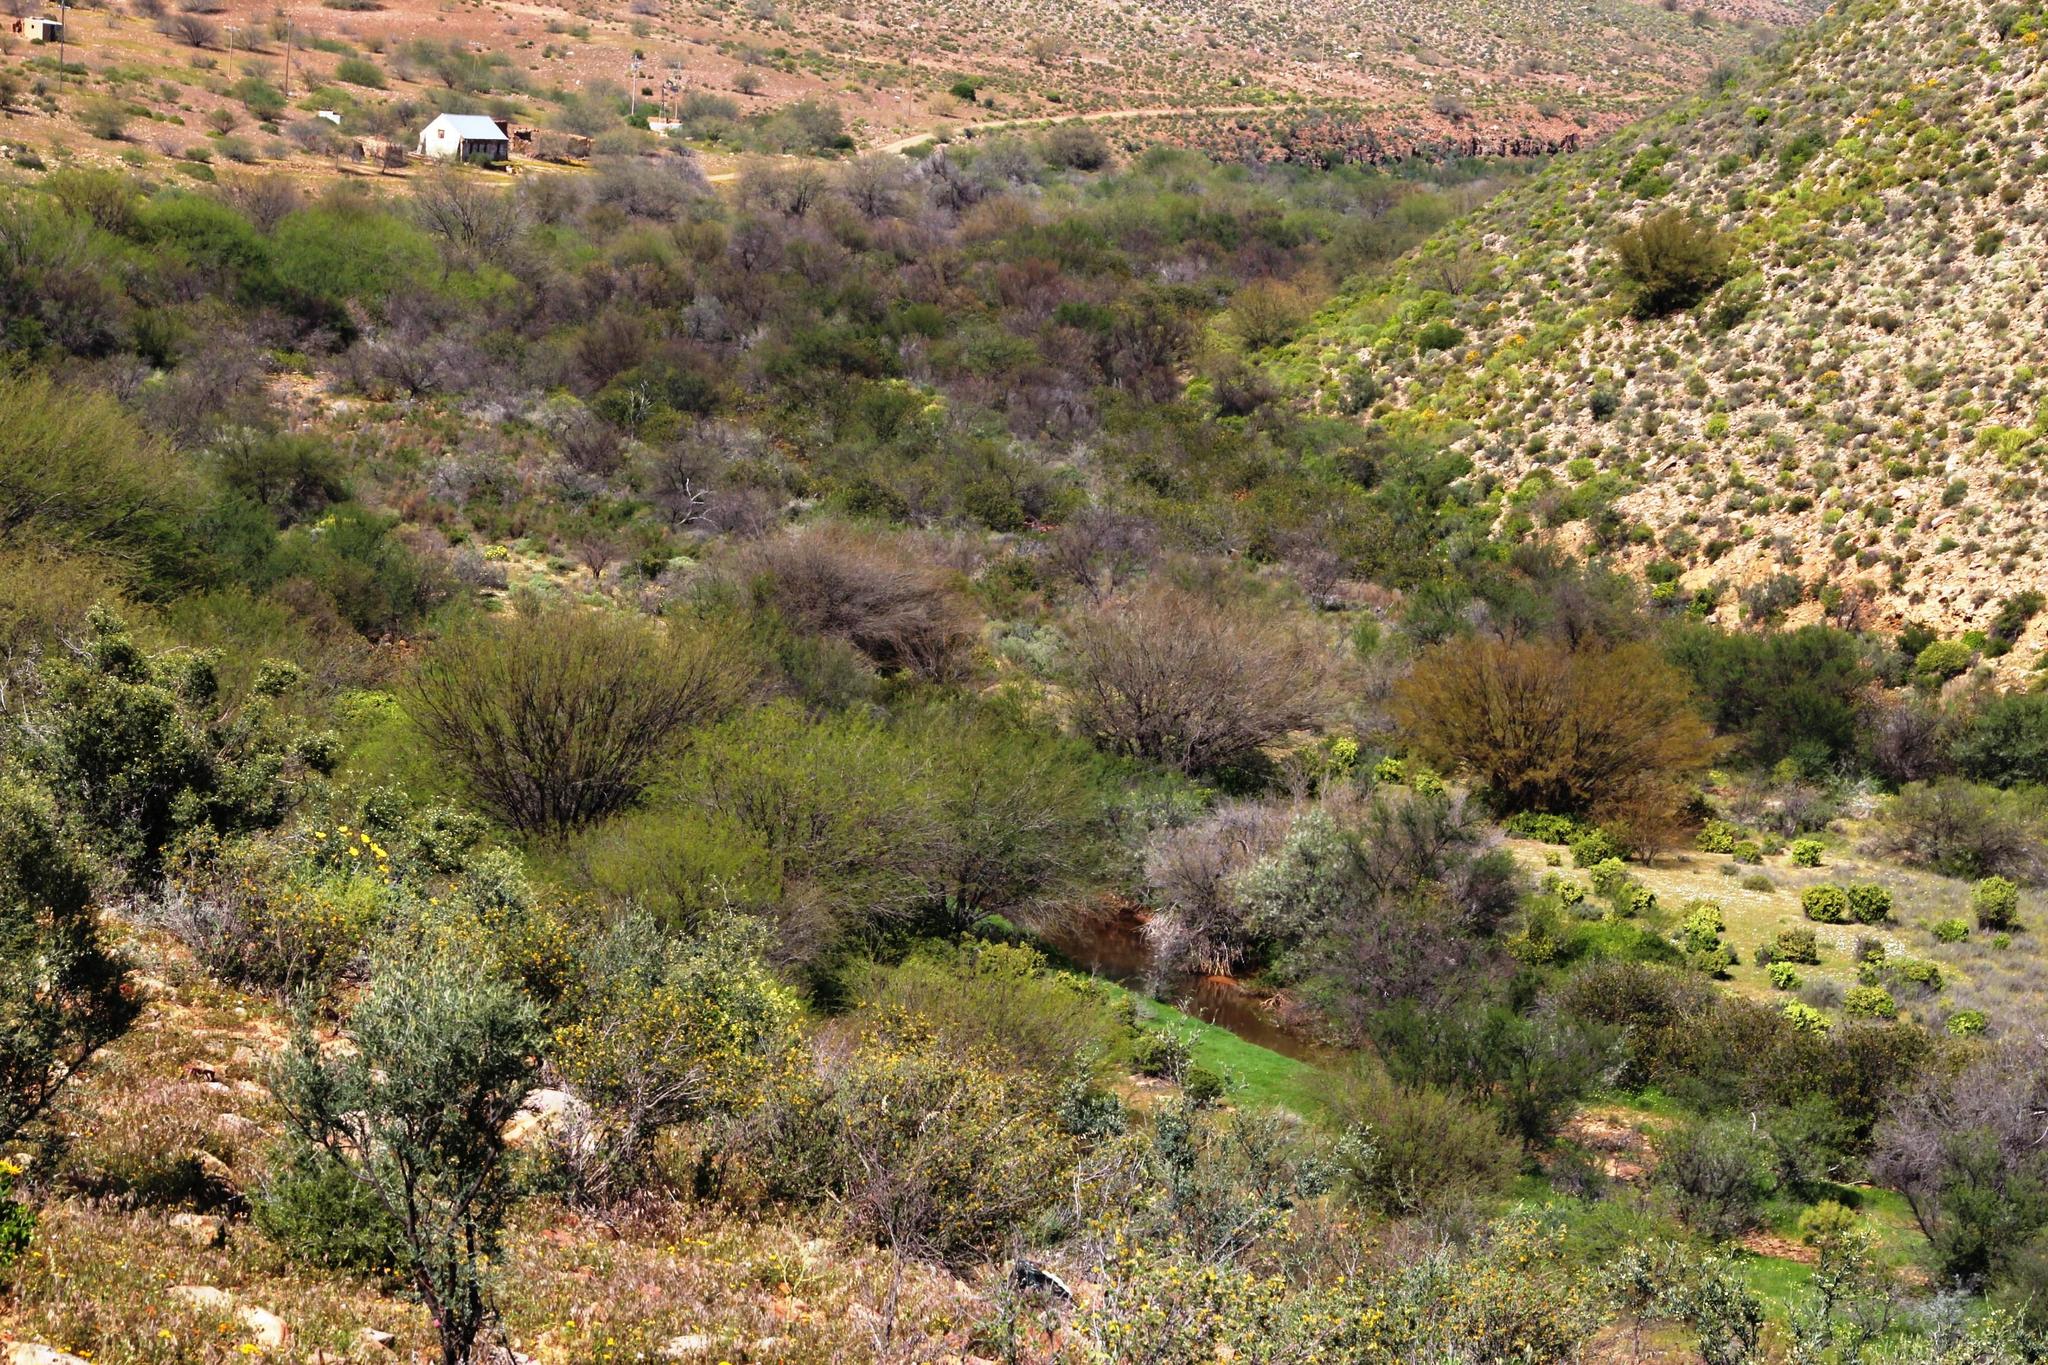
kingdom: Plantae
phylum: Tracheophyta
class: Magnoliopsida
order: Fabales
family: Fabaceae
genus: Prosopis
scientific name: Prosopis glandulosa
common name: Honey mesquite
